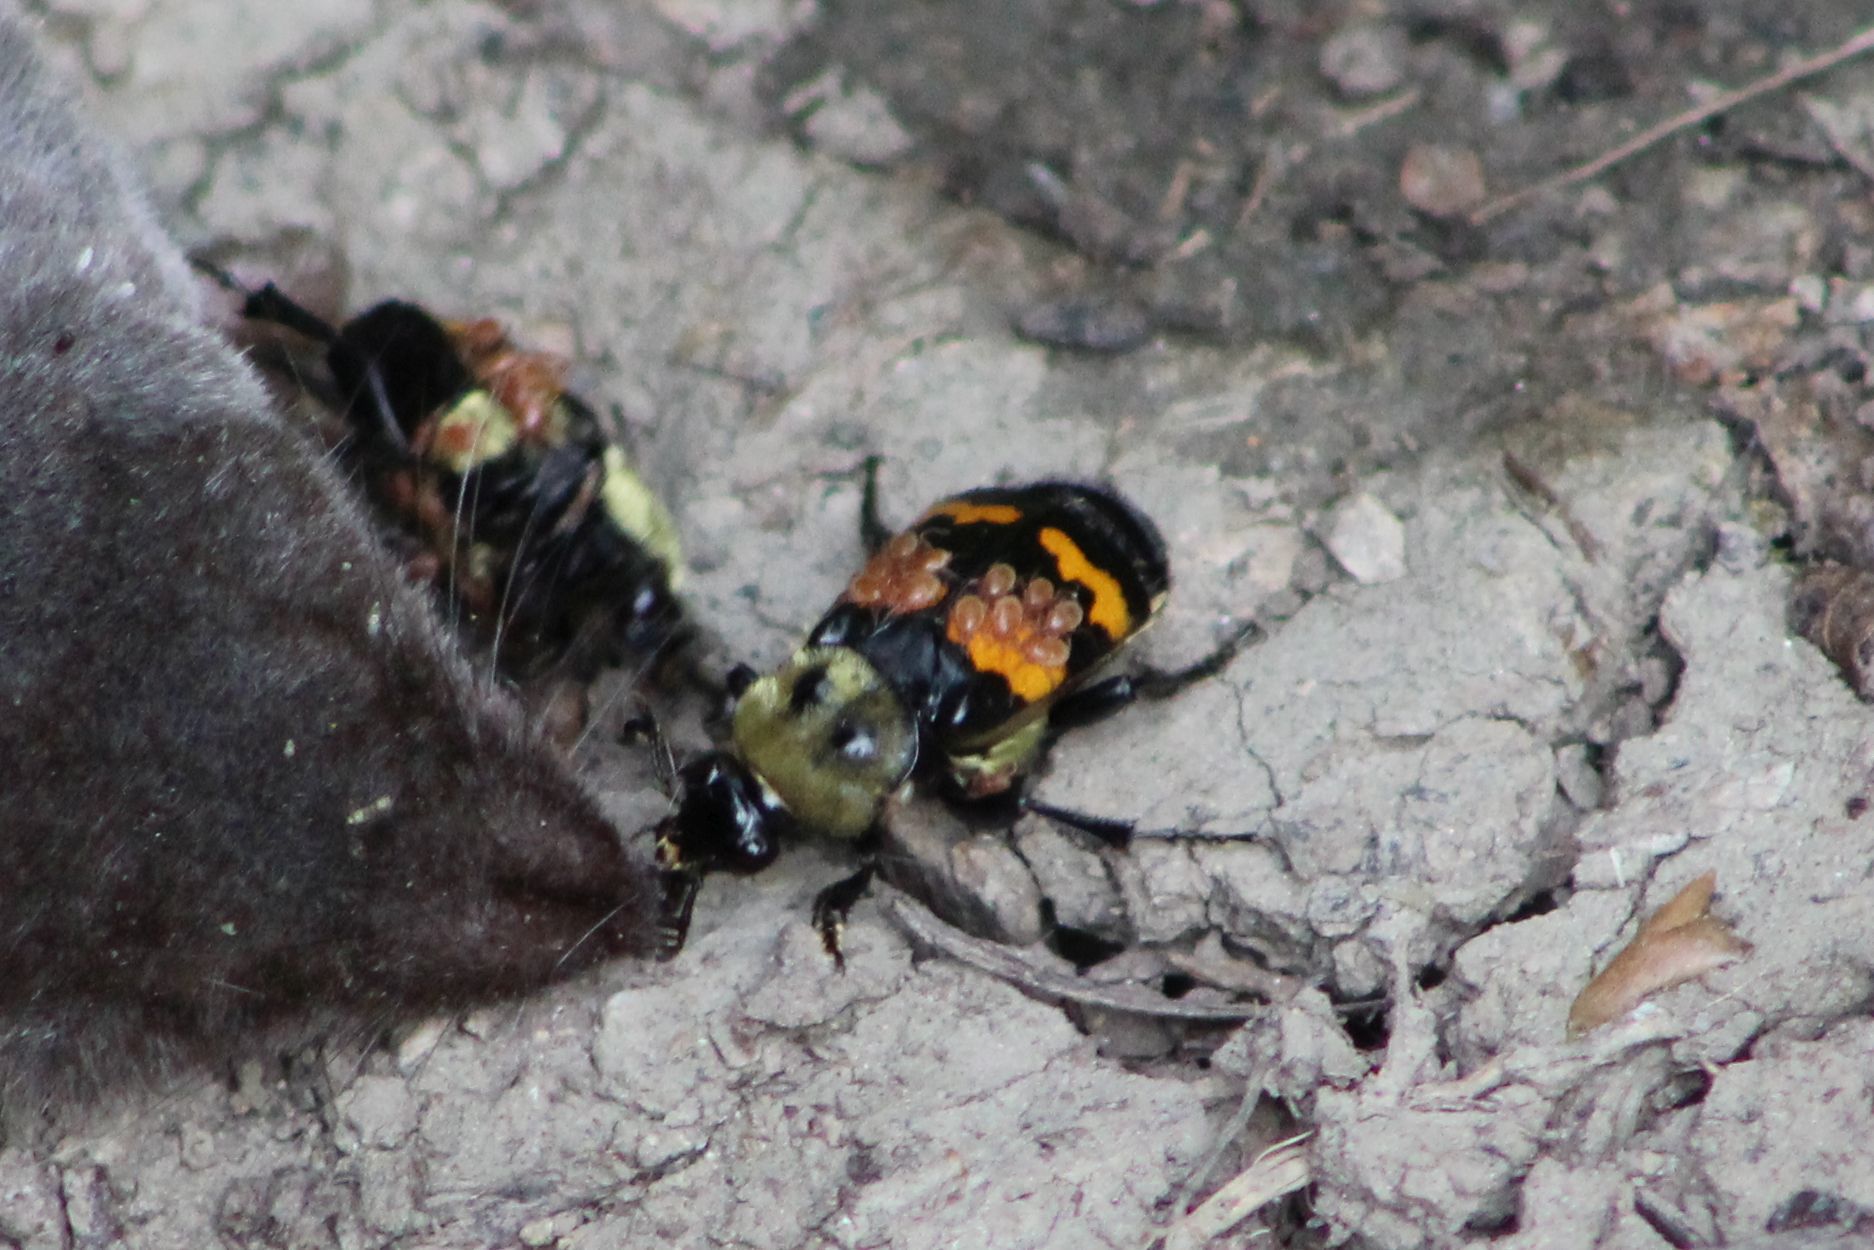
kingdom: Animalia
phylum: Arthropoda
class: Insecta
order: Coleoptera
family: Staphylinidae
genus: Nicrophorus
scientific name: Nicrophorus tomentosus
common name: Tomentose burying beetle
